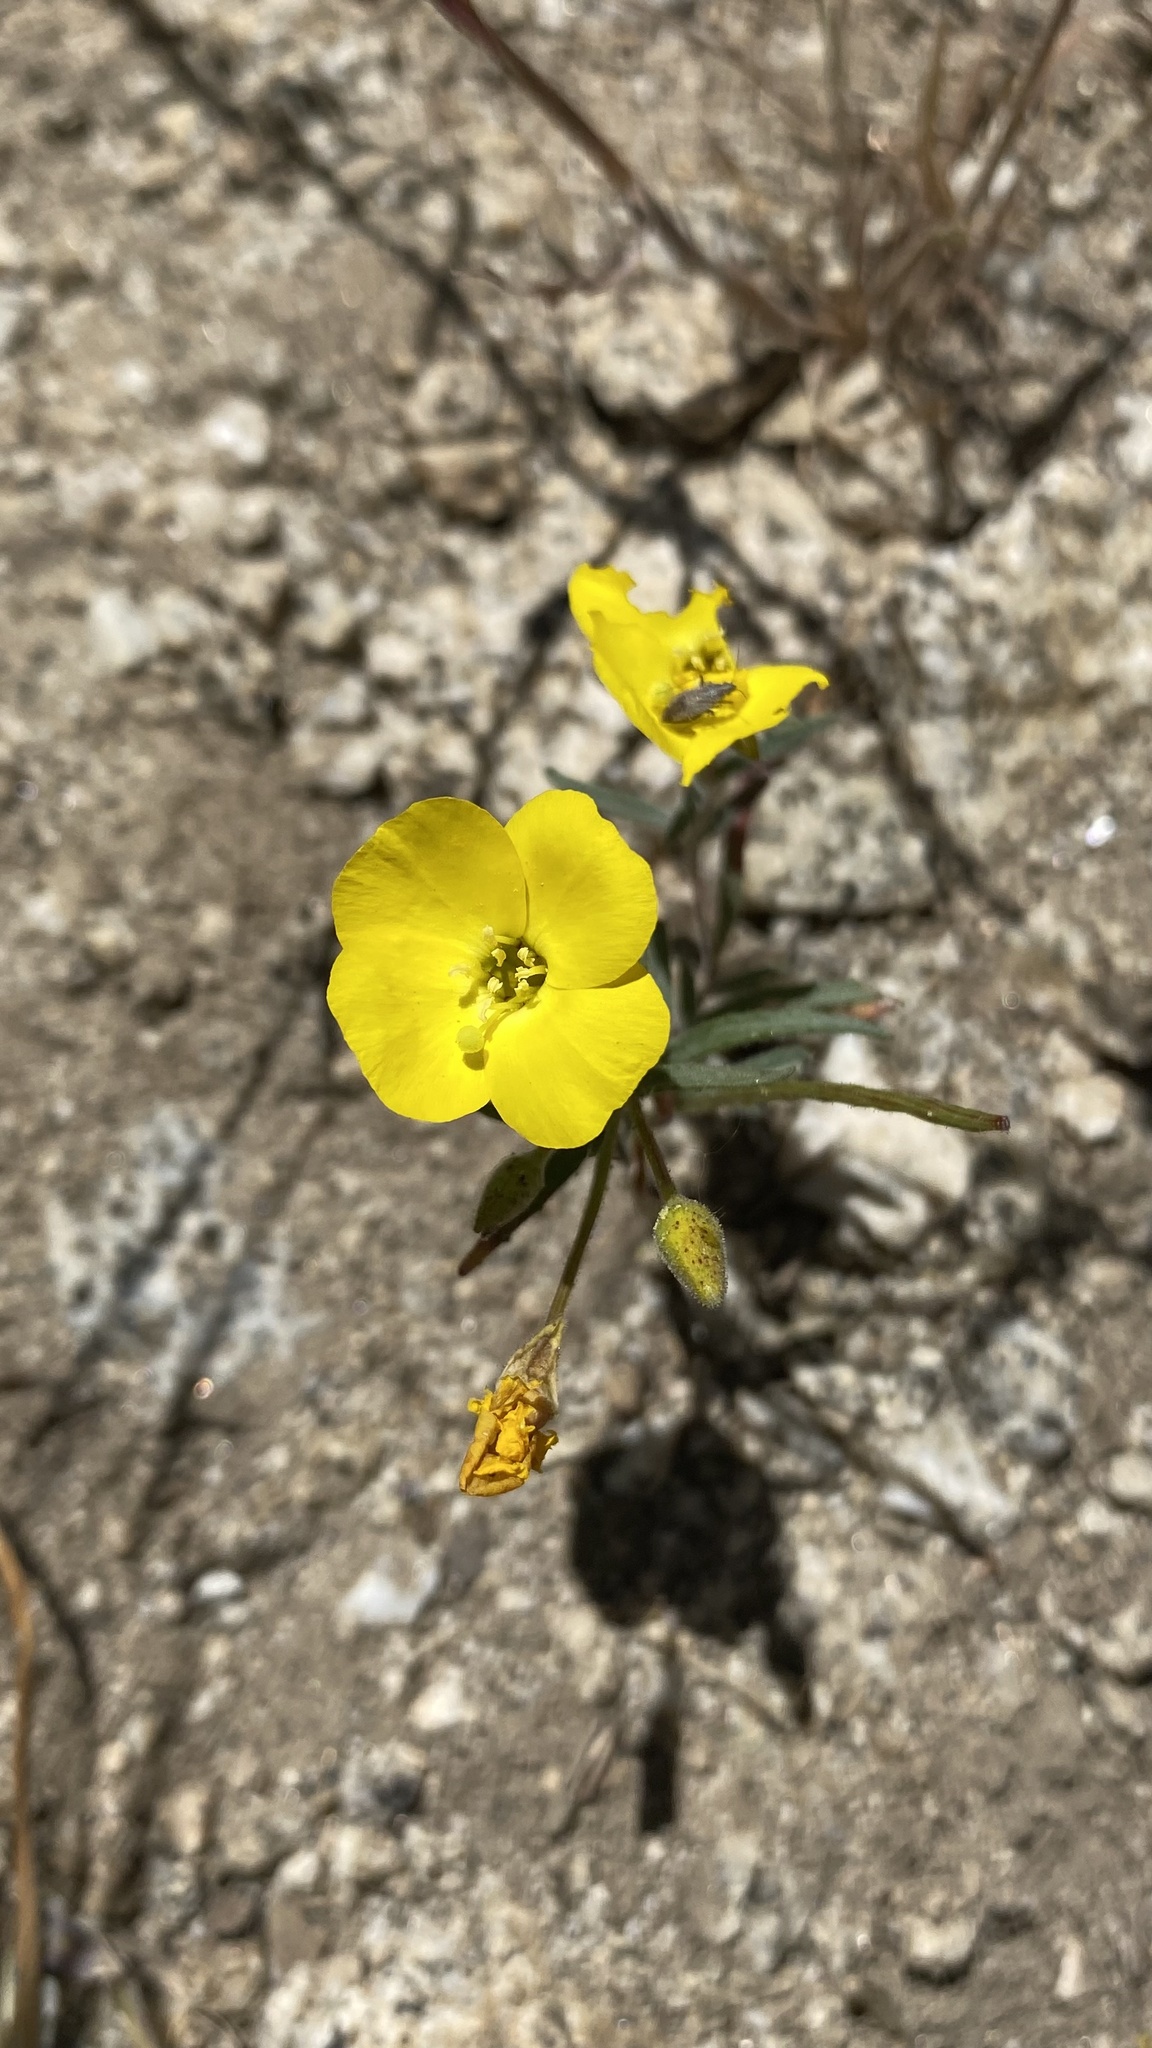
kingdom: Plantae
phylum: Tracheophyta
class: Magnoliopsida
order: Myrtales
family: Onagraceae
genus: Camissonia
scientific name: Camissonia campestris
